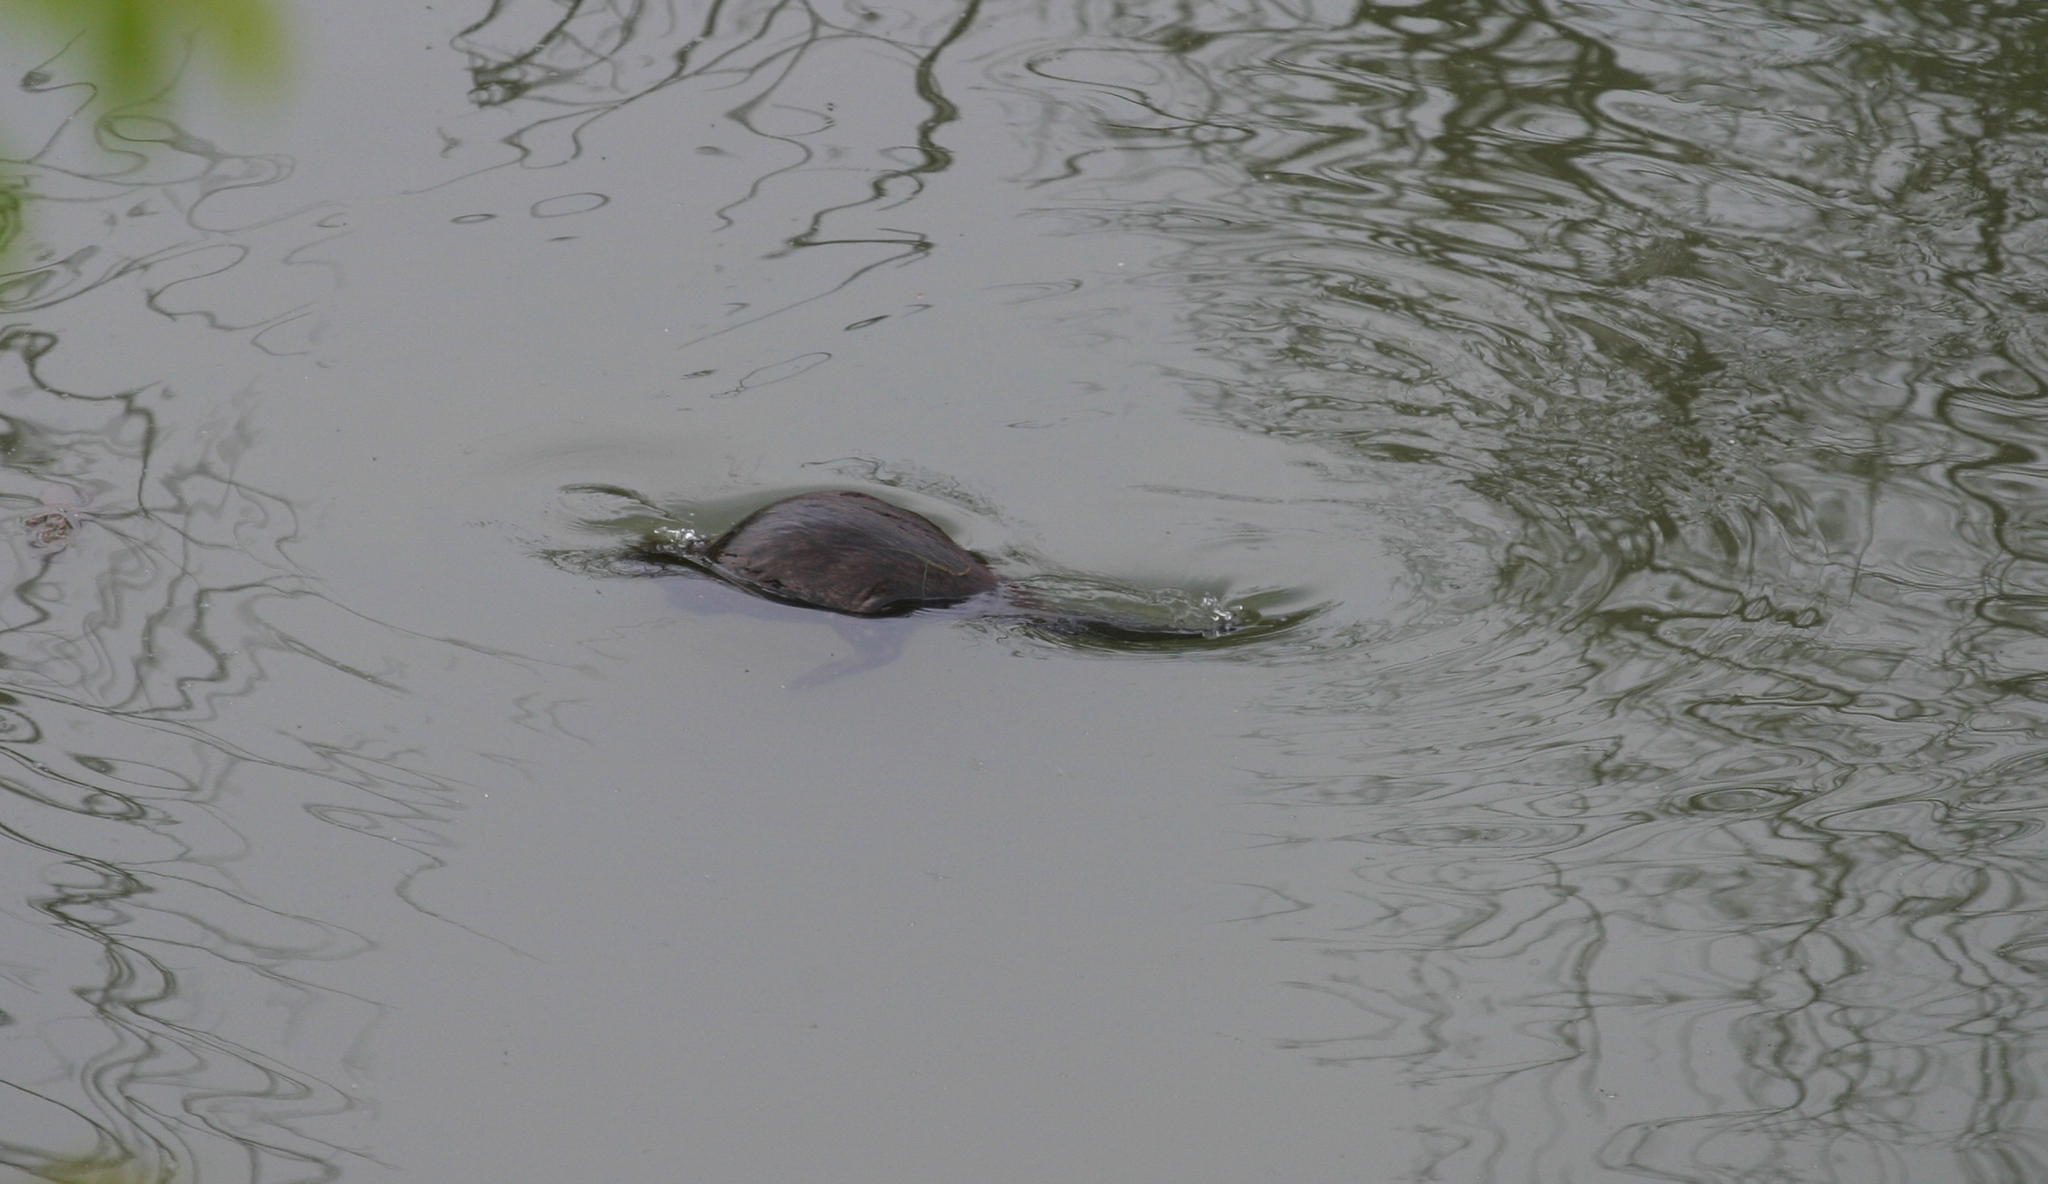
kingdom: Animalia
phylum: Chordata
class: Mammalia
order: Rodentia
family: Castoridae
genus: Castor
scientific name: Castor fiber
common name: Eurasian beaver
